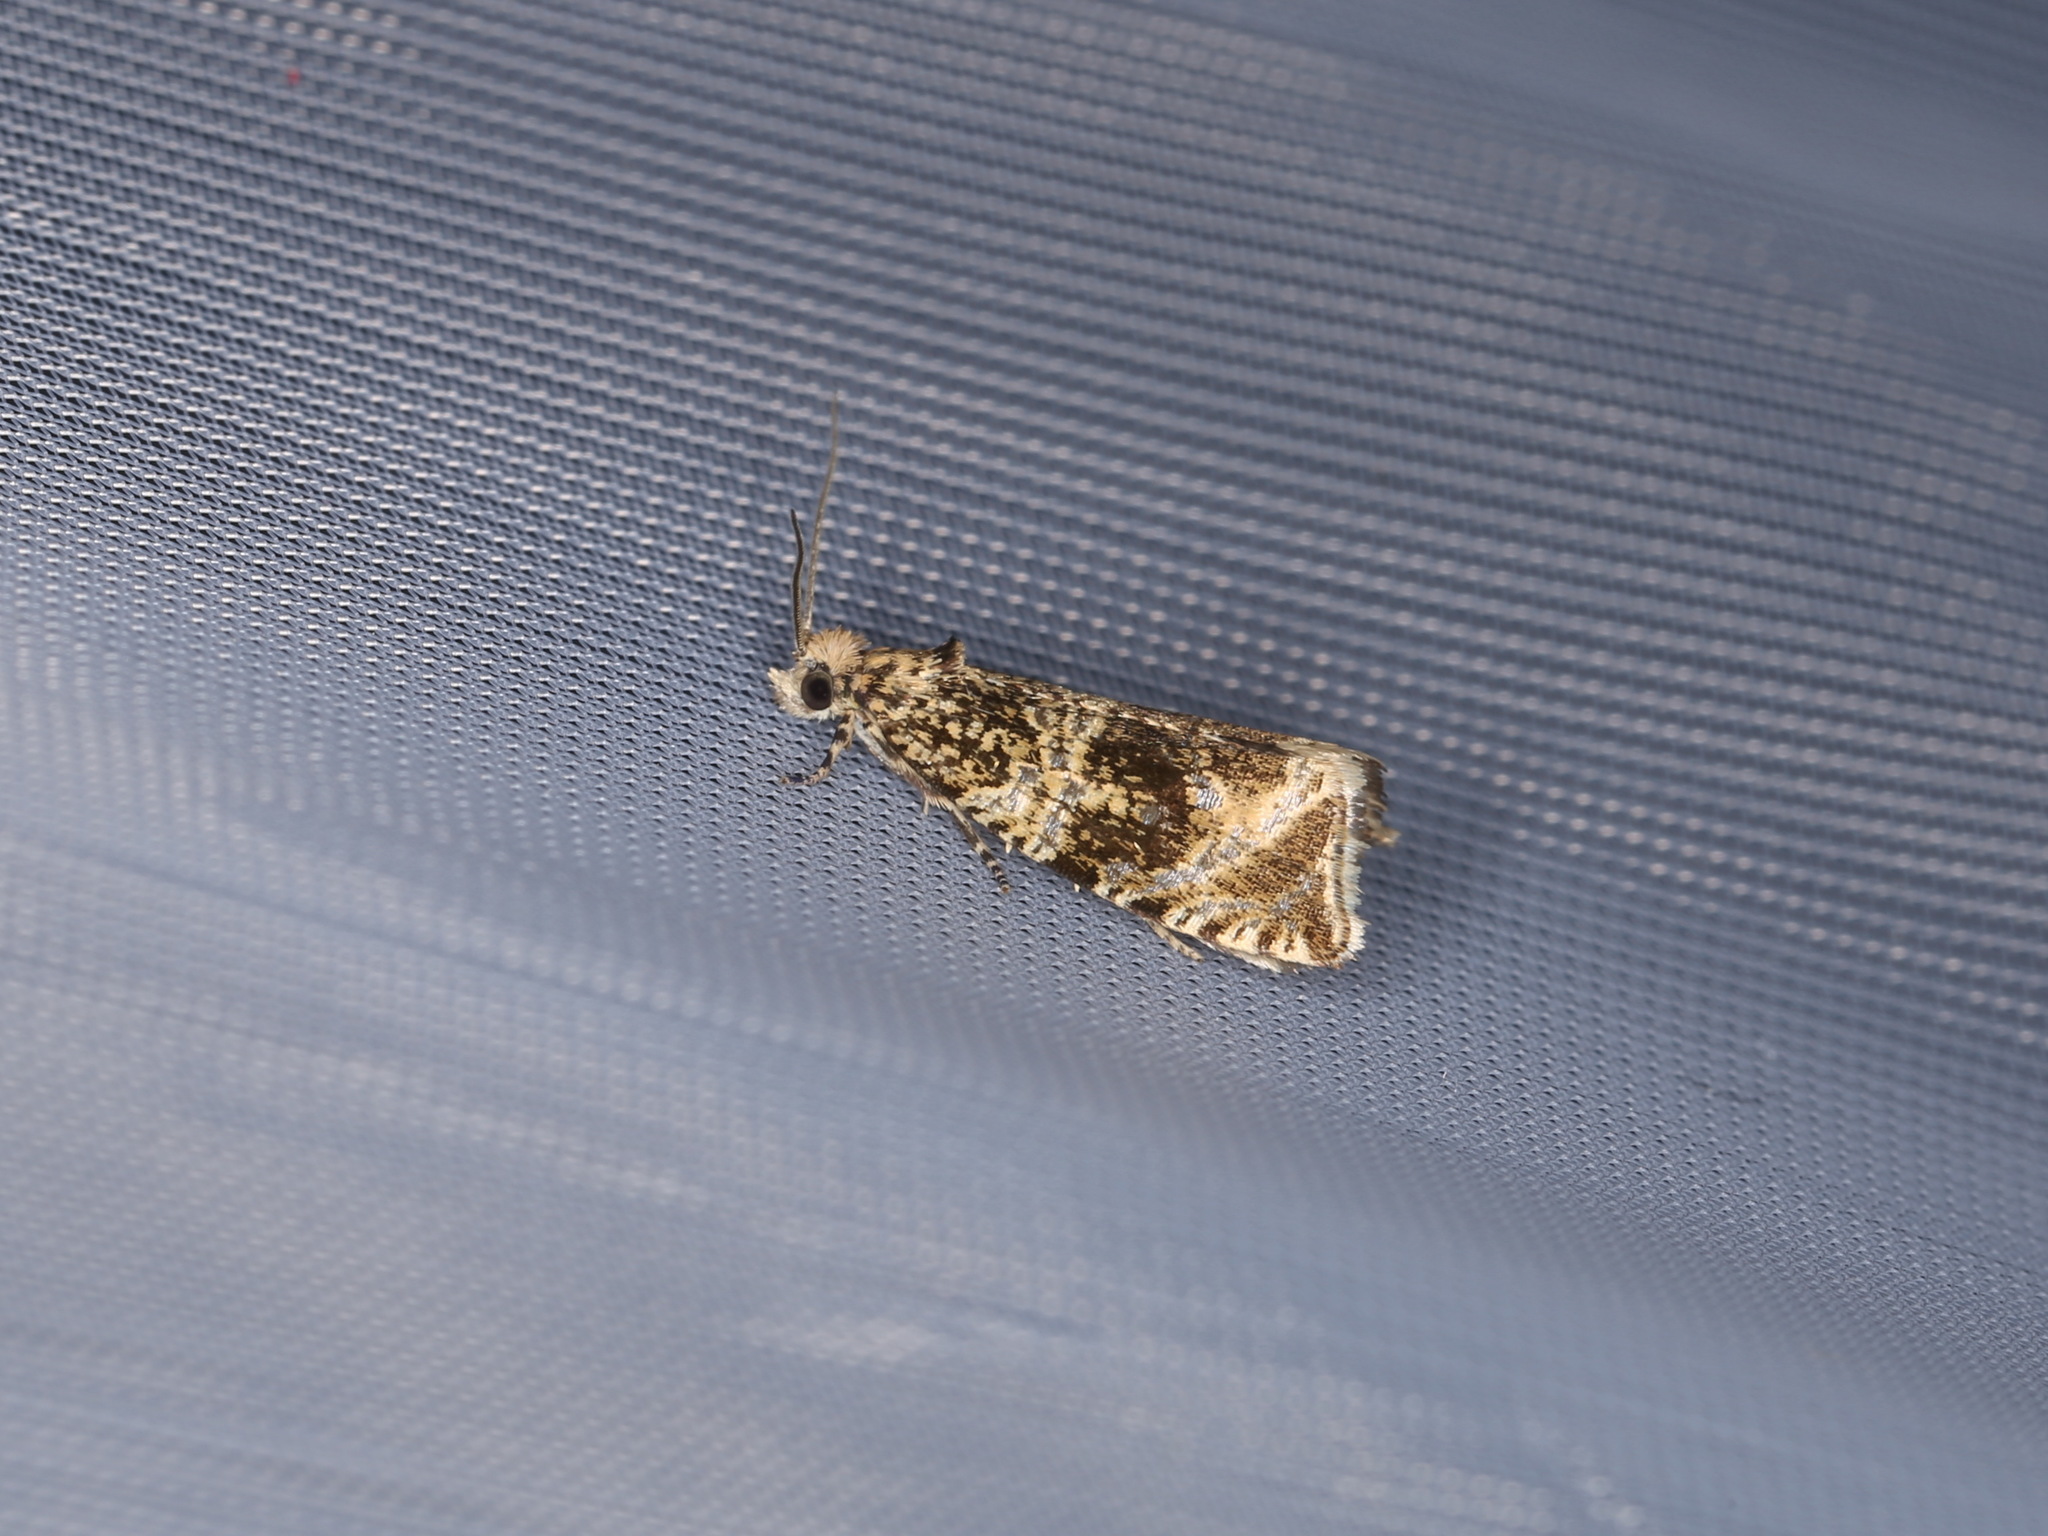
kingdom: Animalia
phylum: Arthropoda
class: Insecta
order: Lepidoptera
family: Tortricidae
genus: Syricoris
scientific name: Syricoris lacunana
